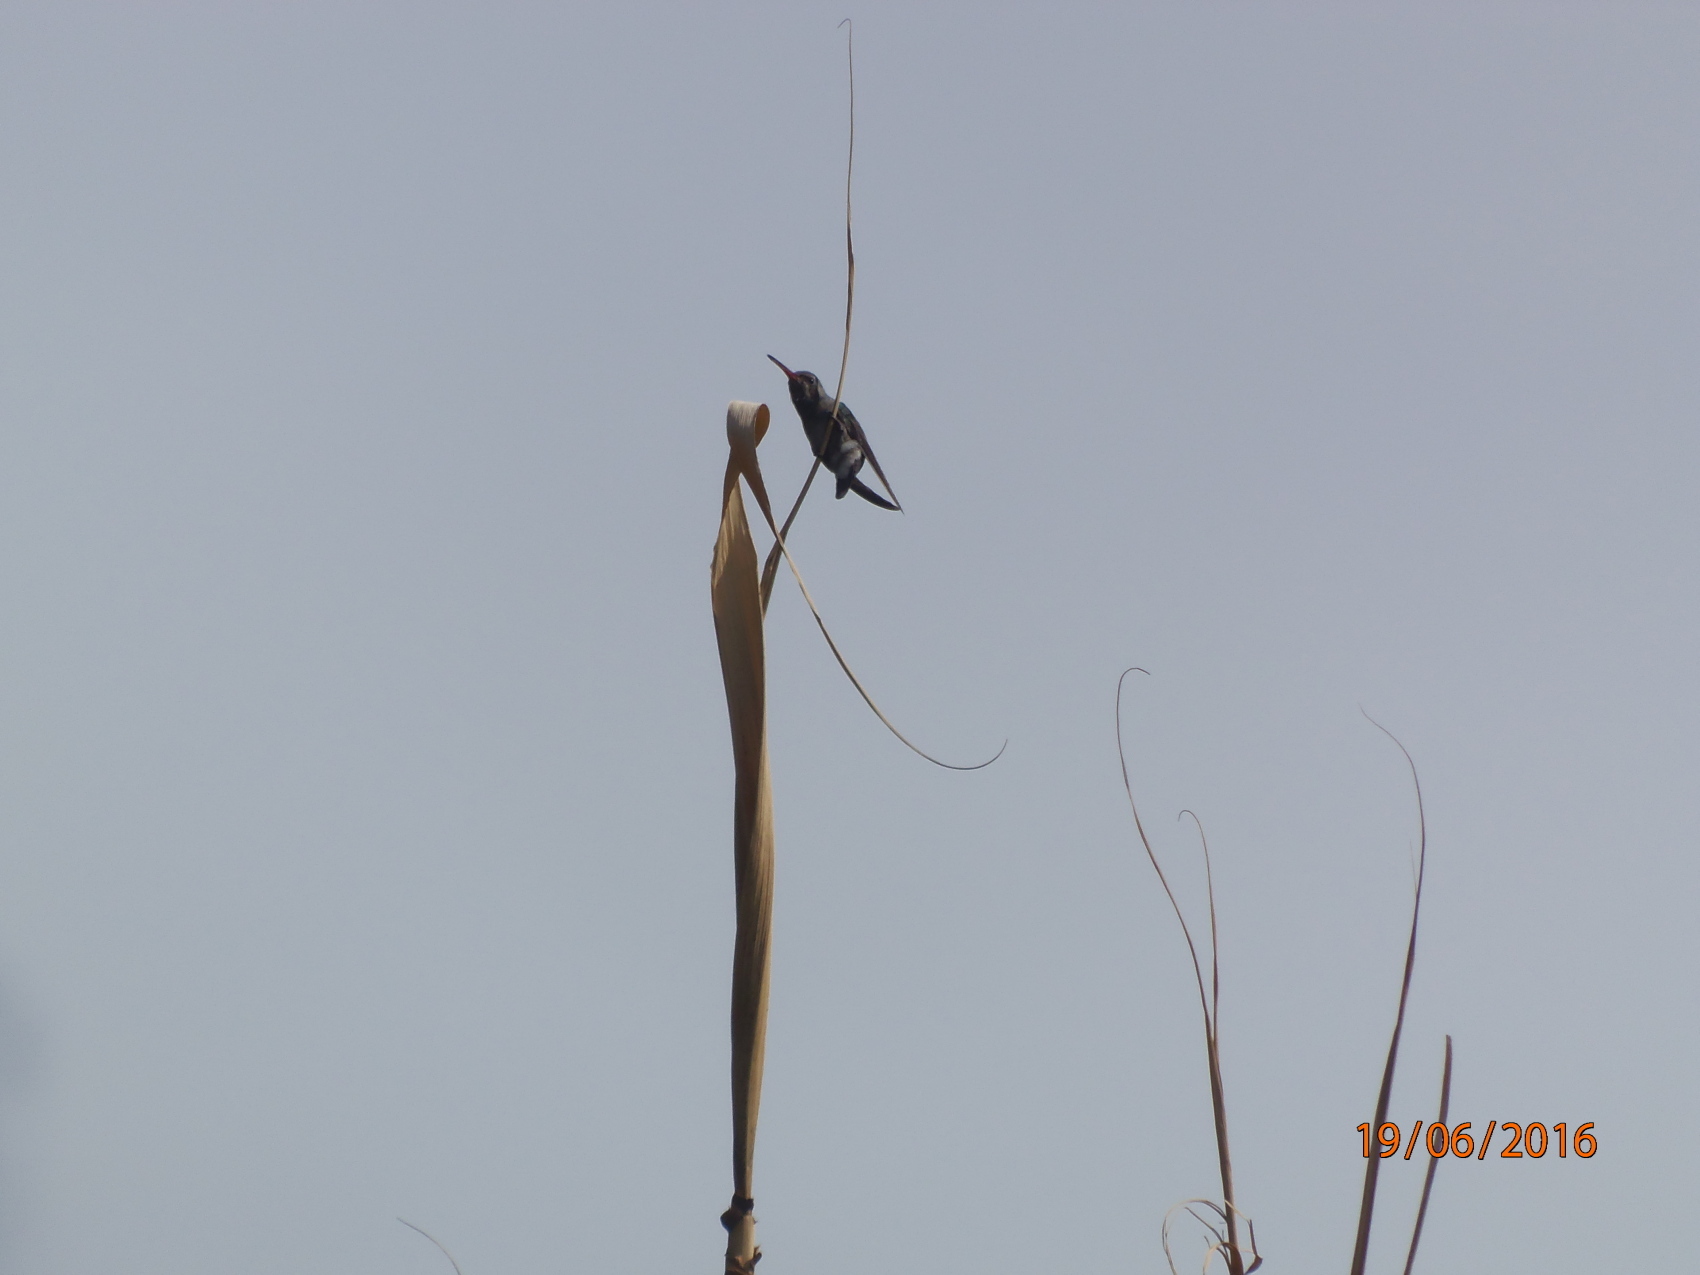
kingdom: Animalia
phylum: Chordata
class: Aves
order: Apodiformes
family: Trochilidae
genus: Cynanthus
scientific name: Cynanthus latirostris
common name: Broad-billed hummingbird
